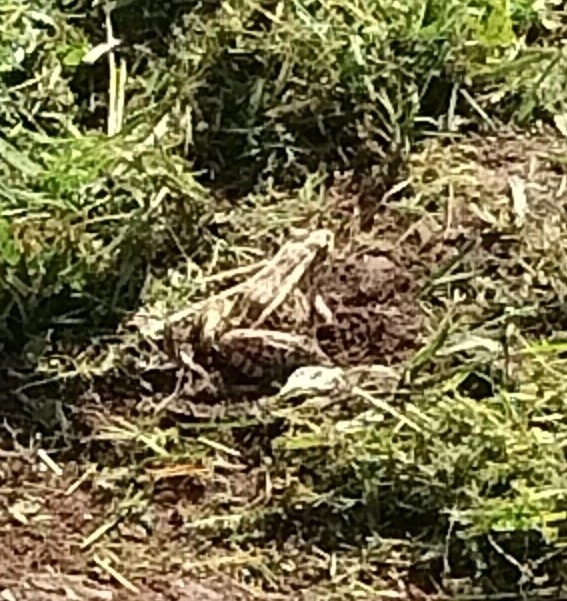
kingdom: Animalia
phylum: Chordata
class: Amphibia
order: Anura
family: Ranidae
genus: Lithobates
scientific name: Lithobates palustris
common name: Pickerel frog
